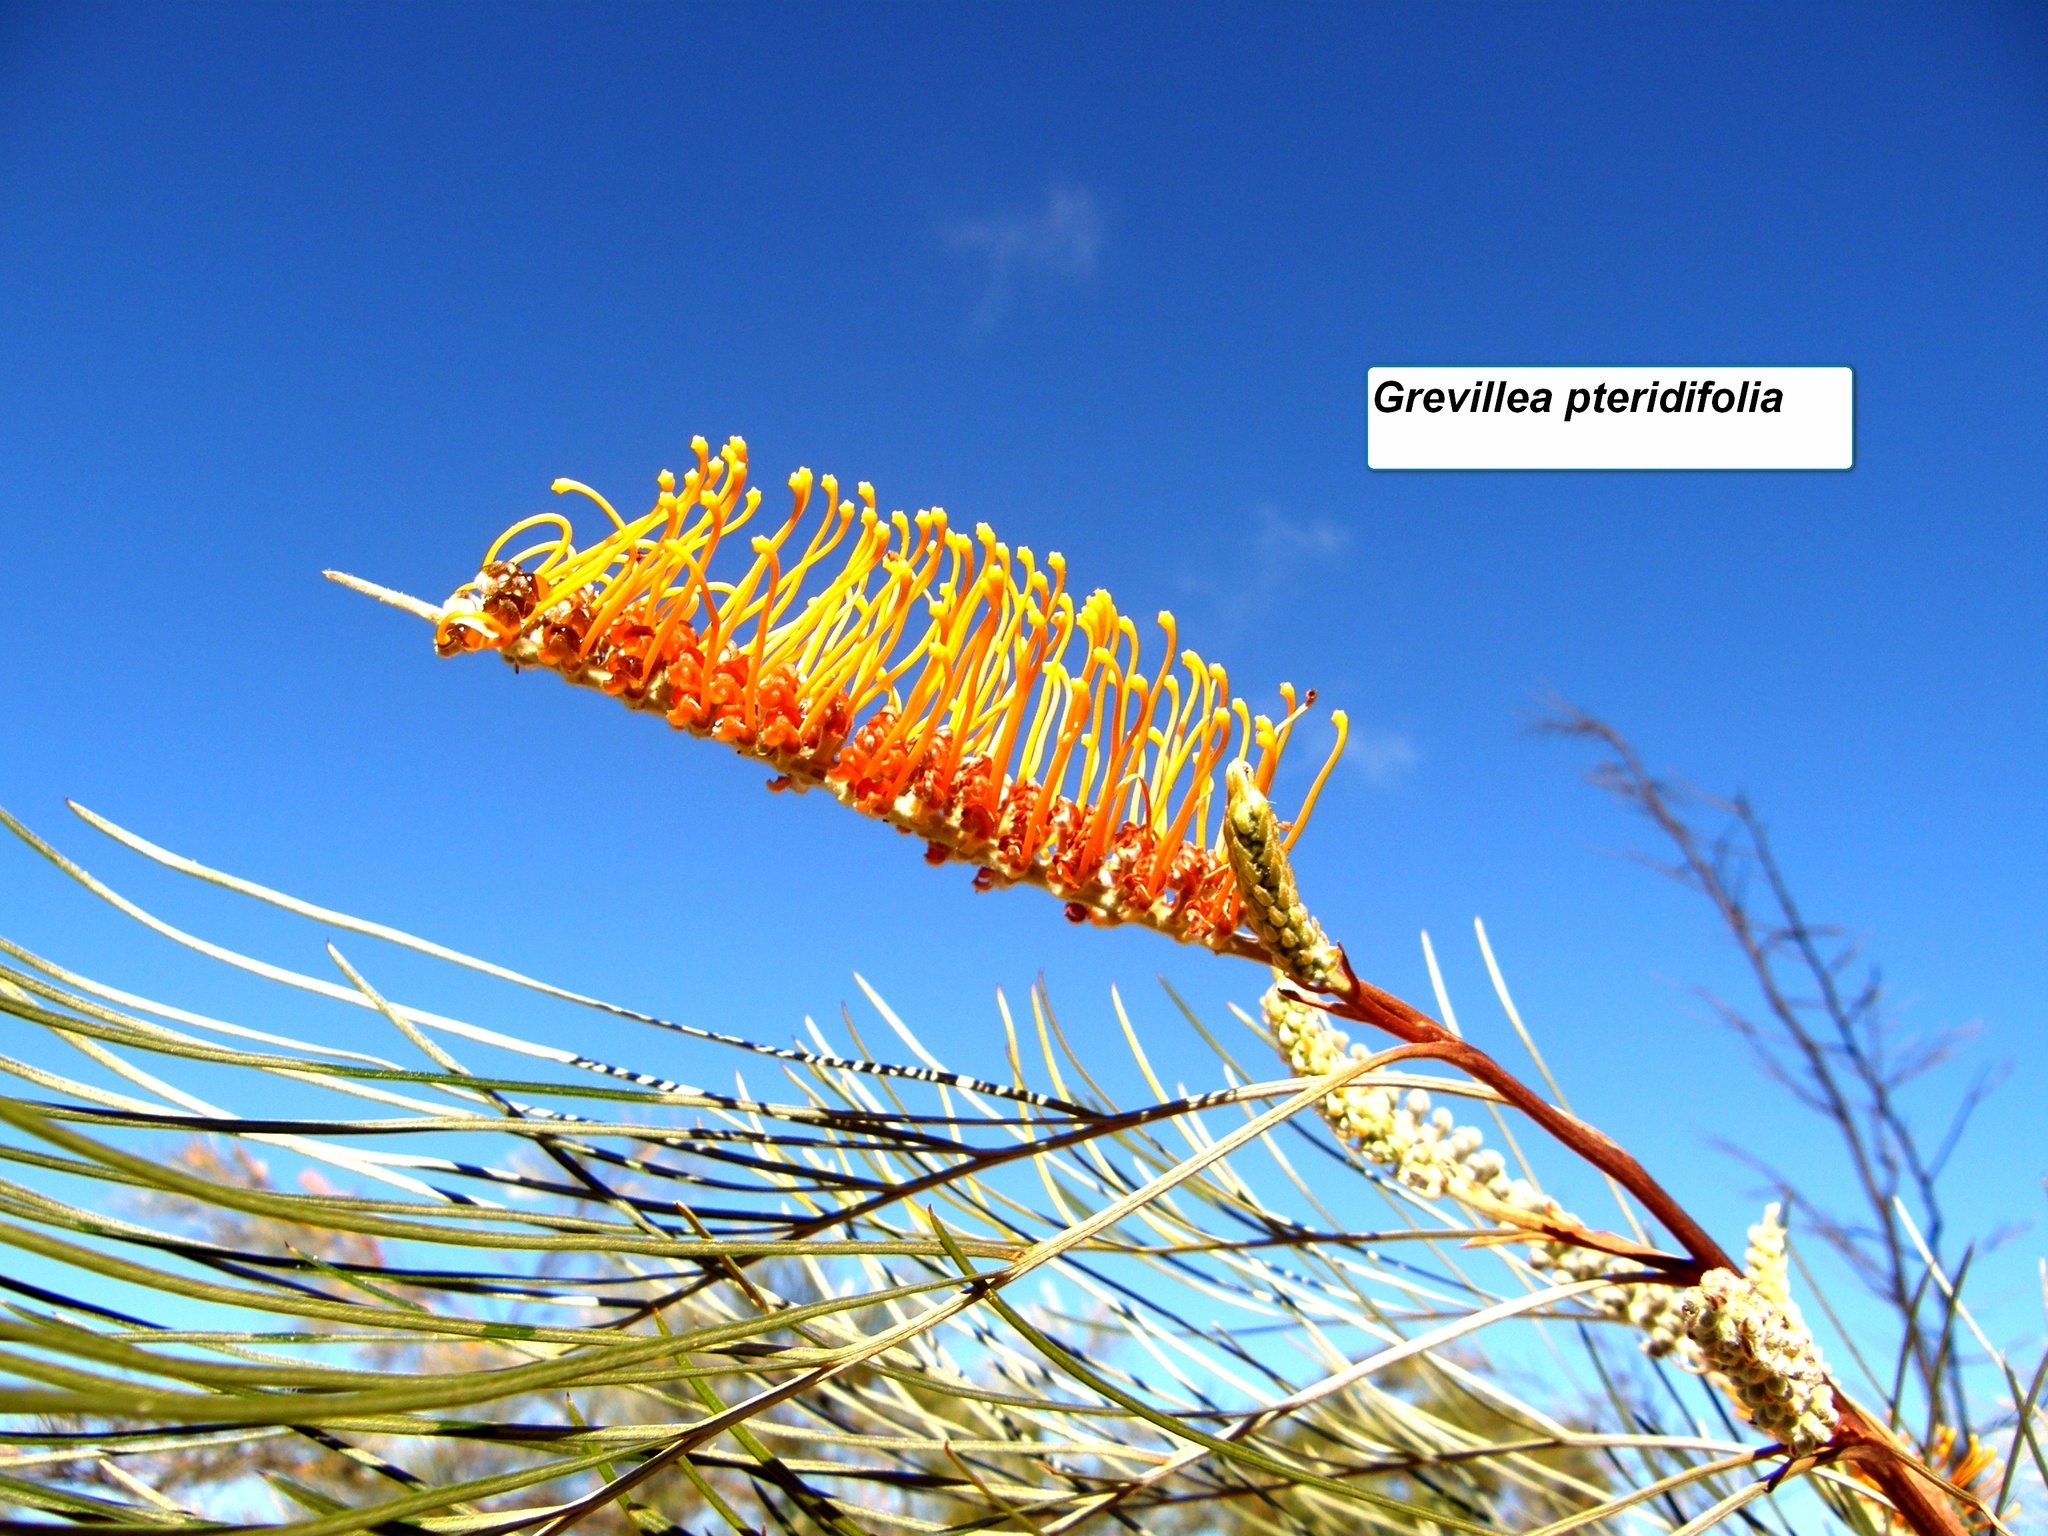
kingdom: Plantae
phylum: Tracheophyta
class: Magnoliopsida
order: Proteales
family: Proteaceae
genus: Grevillea
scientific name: Grevillea pteridifolia
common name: Golden grevillea
